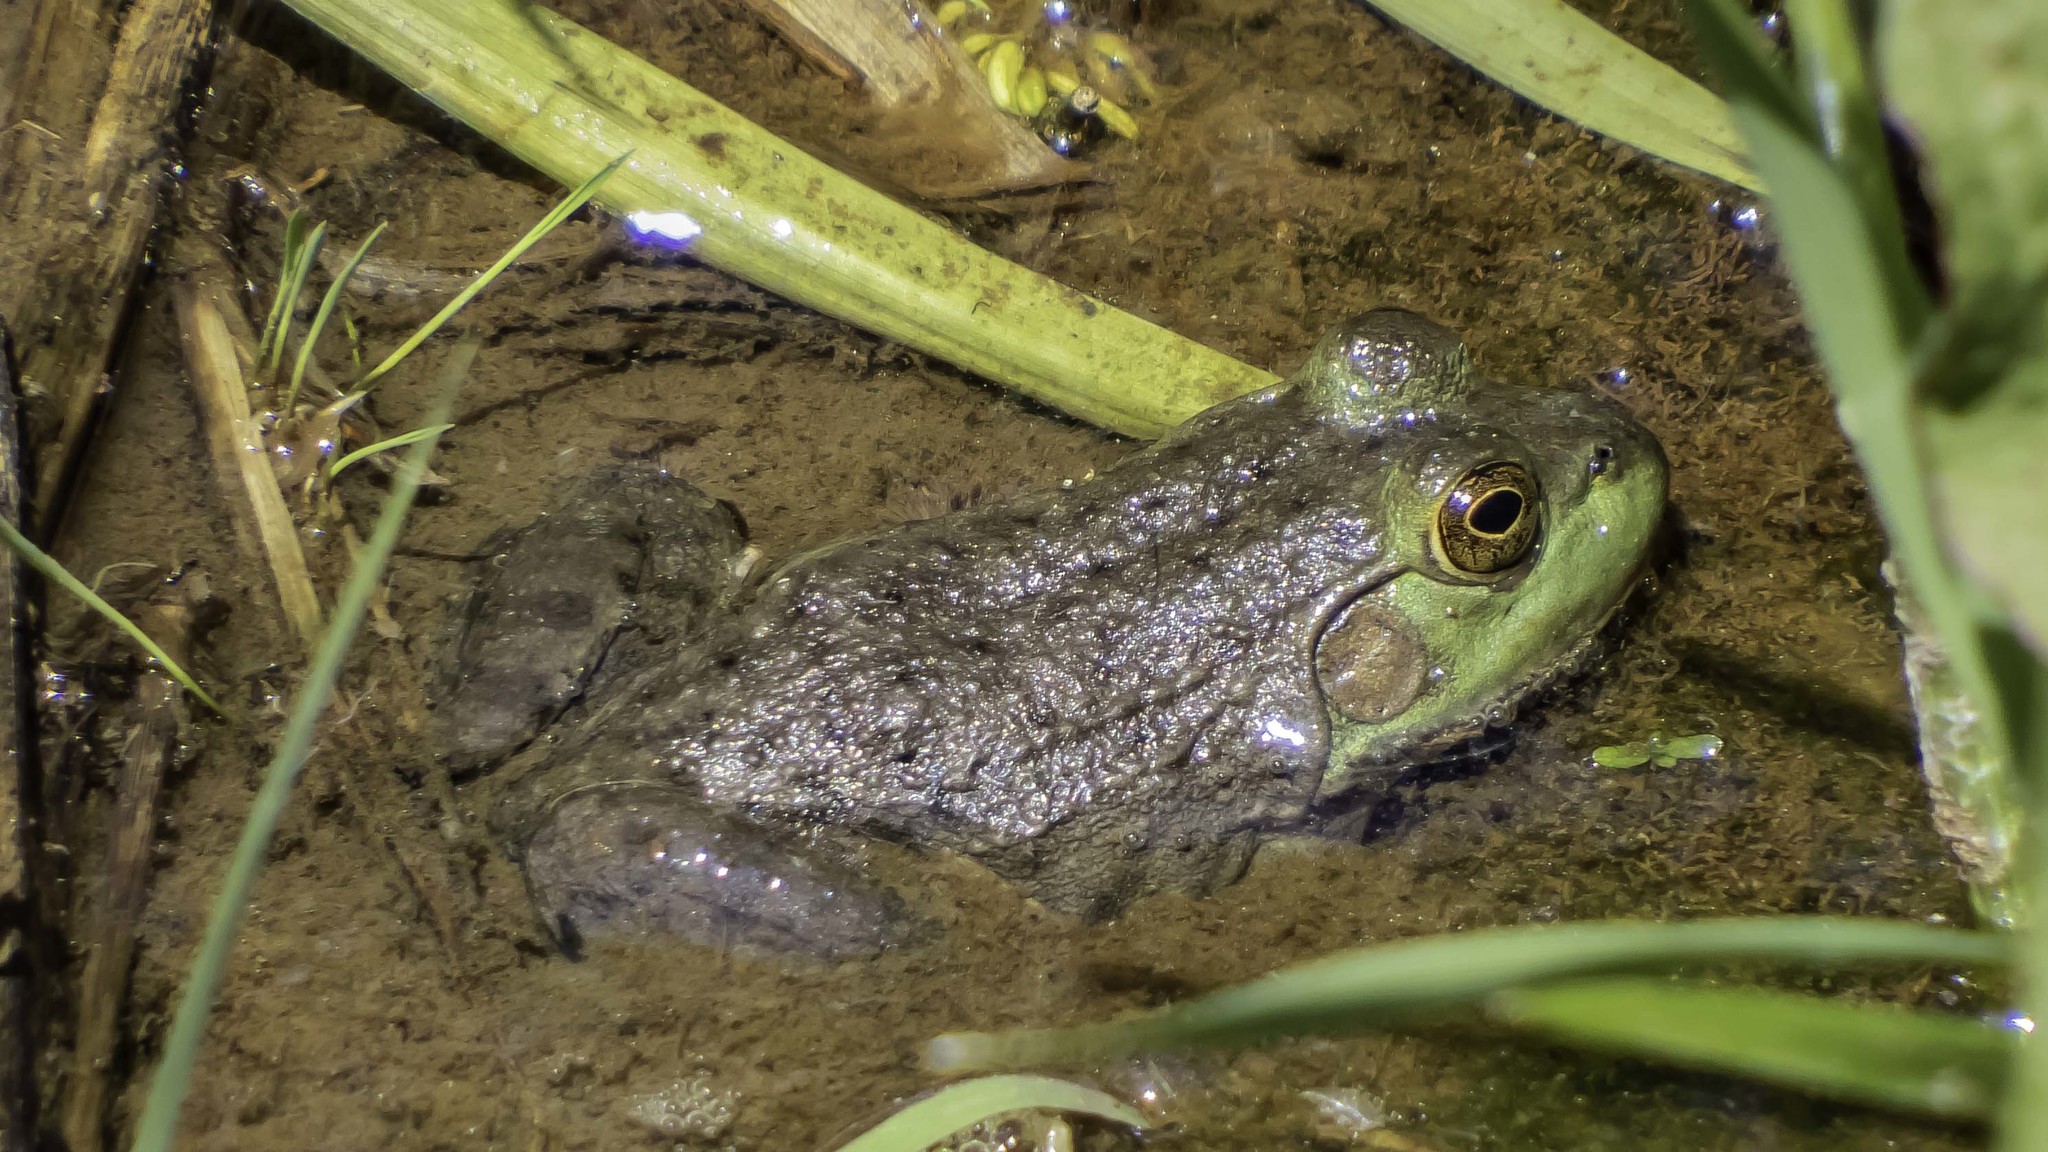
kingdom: Animalia
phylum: Chordata
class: Amphibia
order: Anura
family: Ranidae
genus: Lithobates
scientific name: Lithobates catesbeianus
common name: American bullfrog
